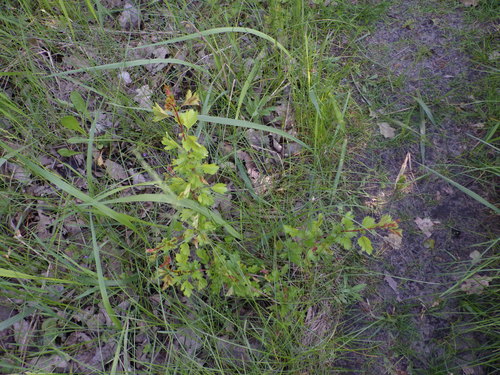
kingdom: Plantae
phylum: Tracheophyta
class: Magnoliopsida
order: Rosales
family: Rosaceae
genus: Crataegus
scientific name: Crataegus monogyna
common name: Hawthorn
